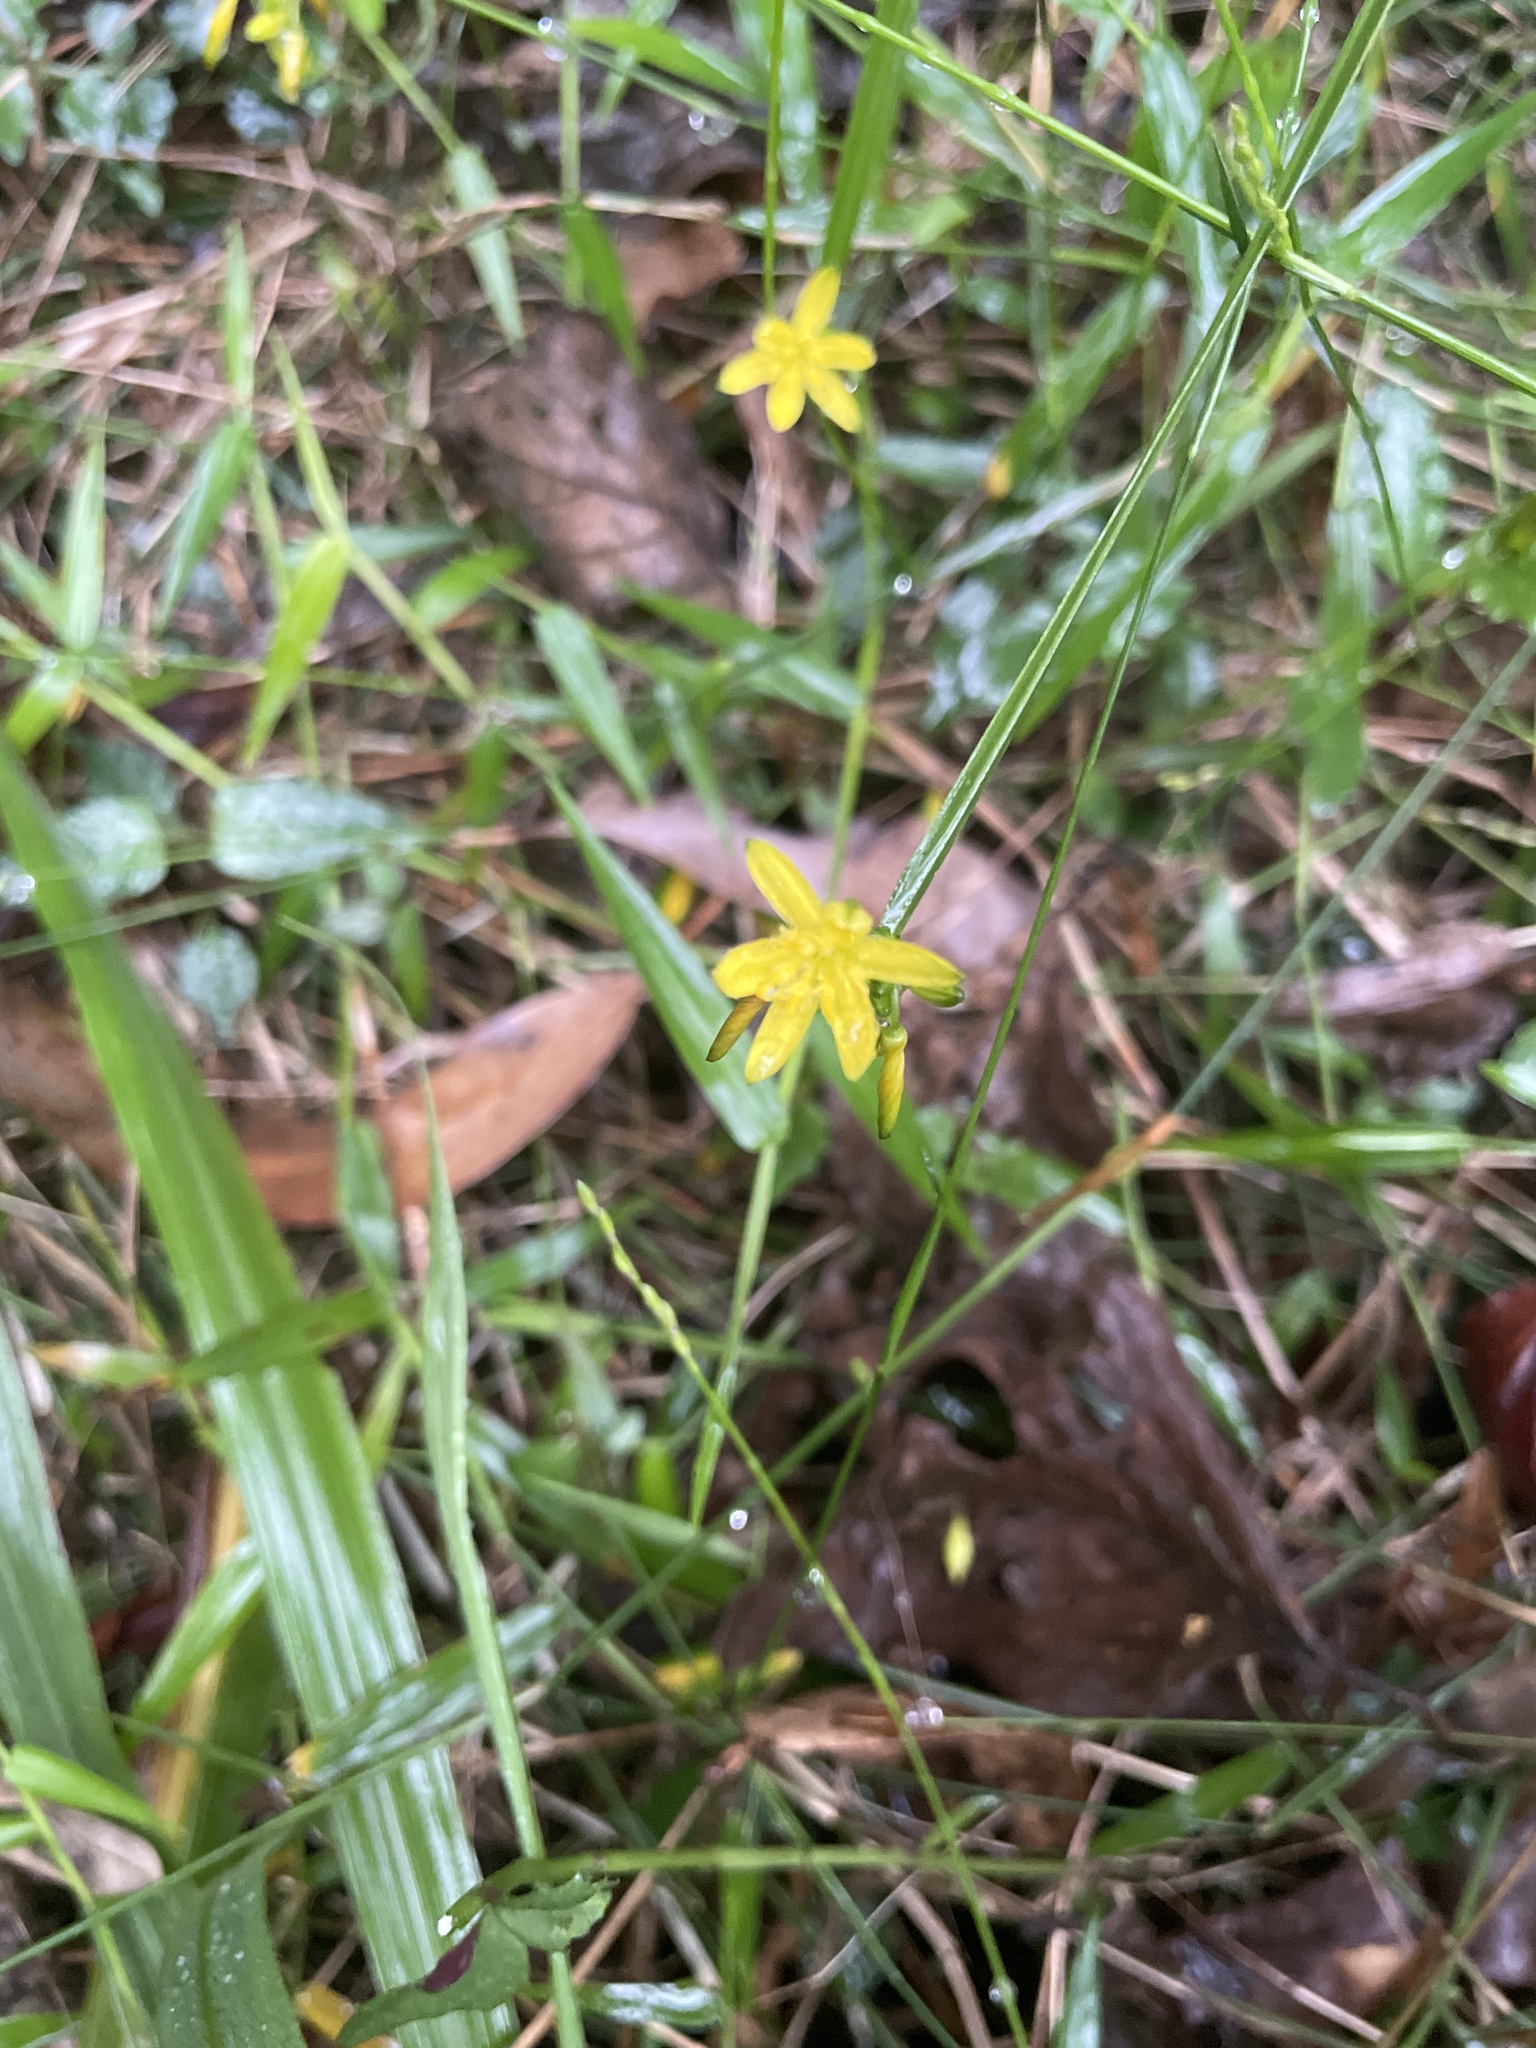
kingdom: Plantae
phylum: Tracheophyta
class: Liliopsida
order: Asparagales
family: Asphodelaceae
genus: Tricoryne
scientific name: Tricoryne anceps
